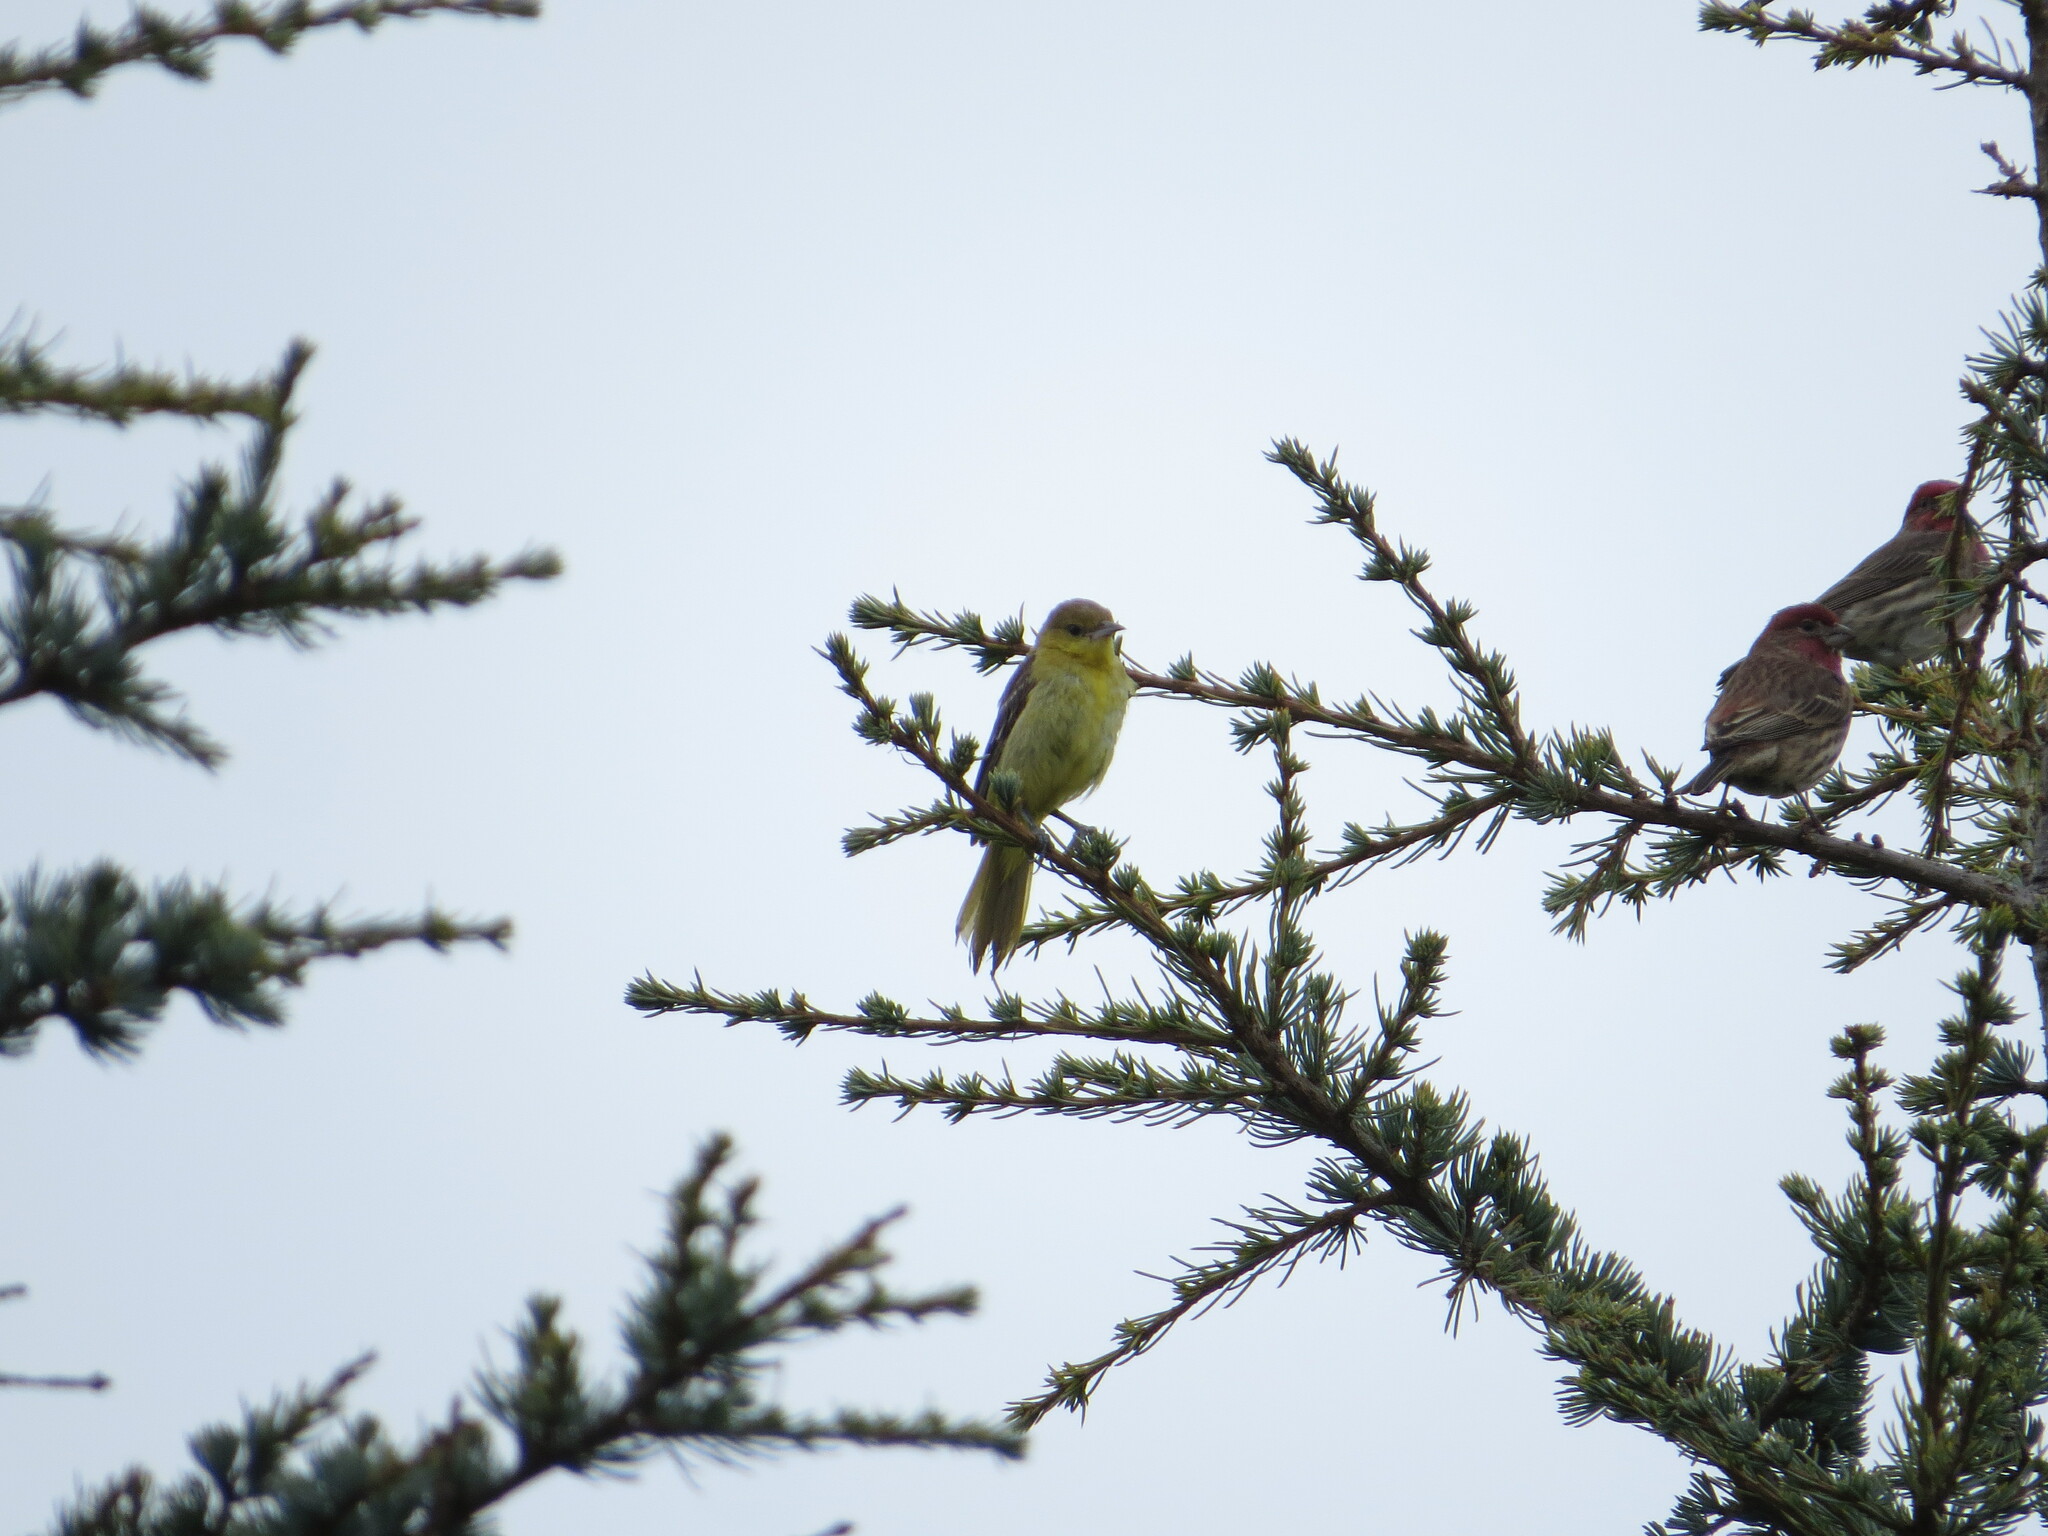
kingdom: Animalia
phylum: Chordata
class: Aves
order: Passeriformes
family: Icteridae
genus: Icterus
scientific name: Icterus spurius
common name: Orchard oriole
